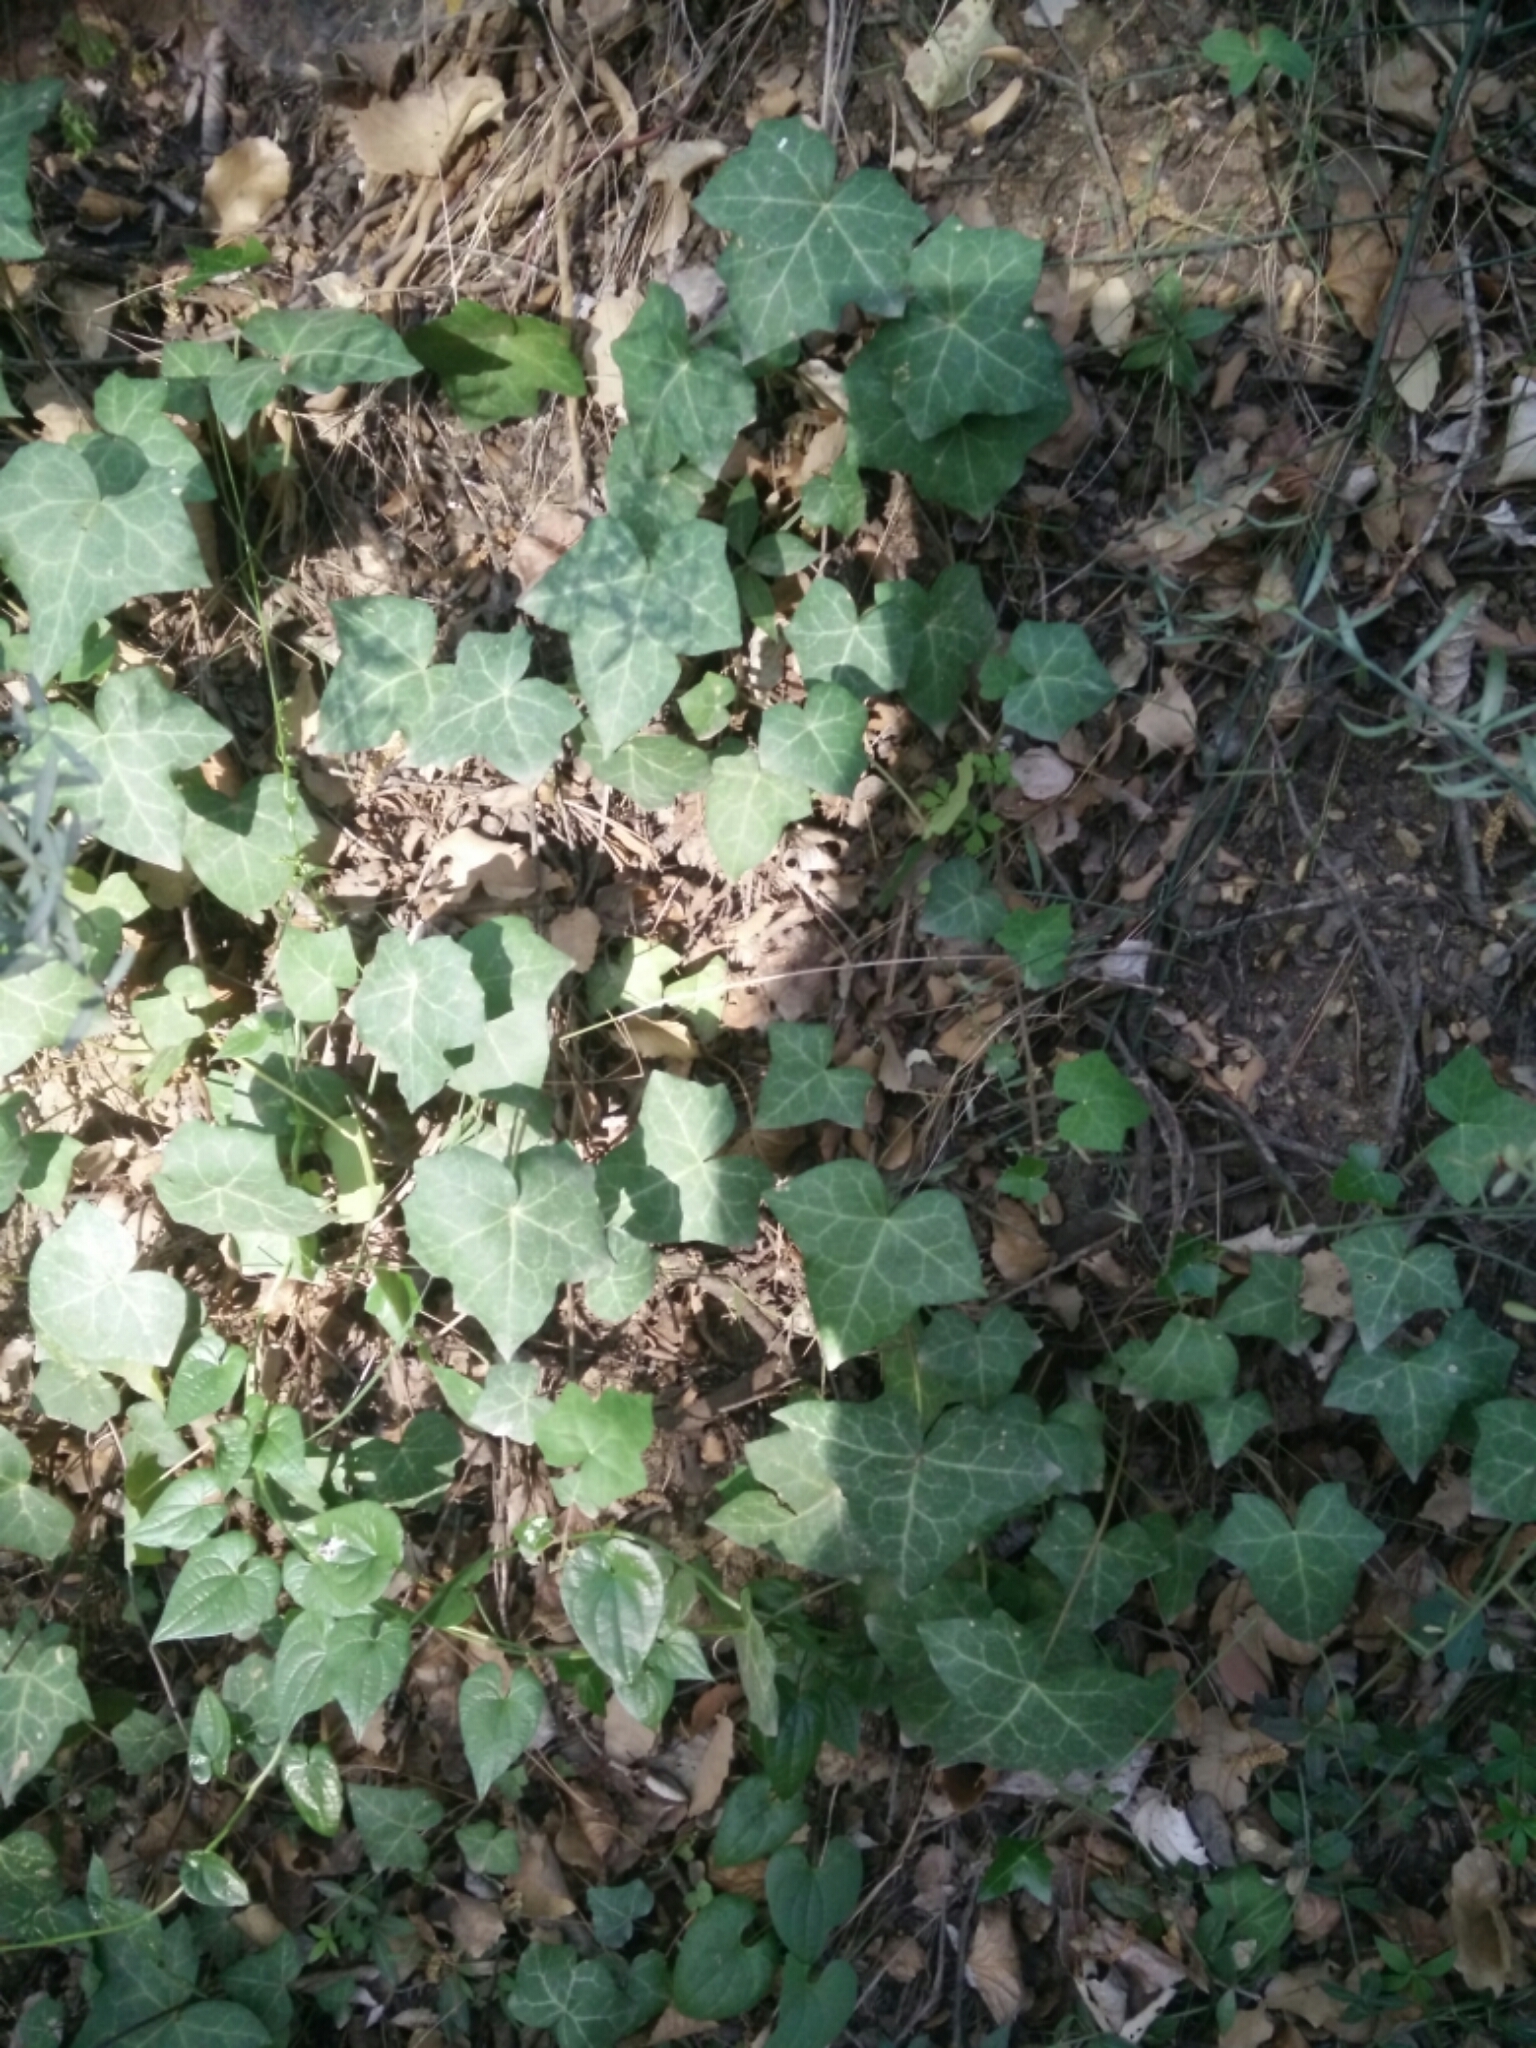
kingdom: Plantae
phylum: Tracheophyta
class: Magnoliopsida
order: Apiales
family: Araliaceae
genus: Hedera
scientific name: Hedera helix
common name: Ivy
